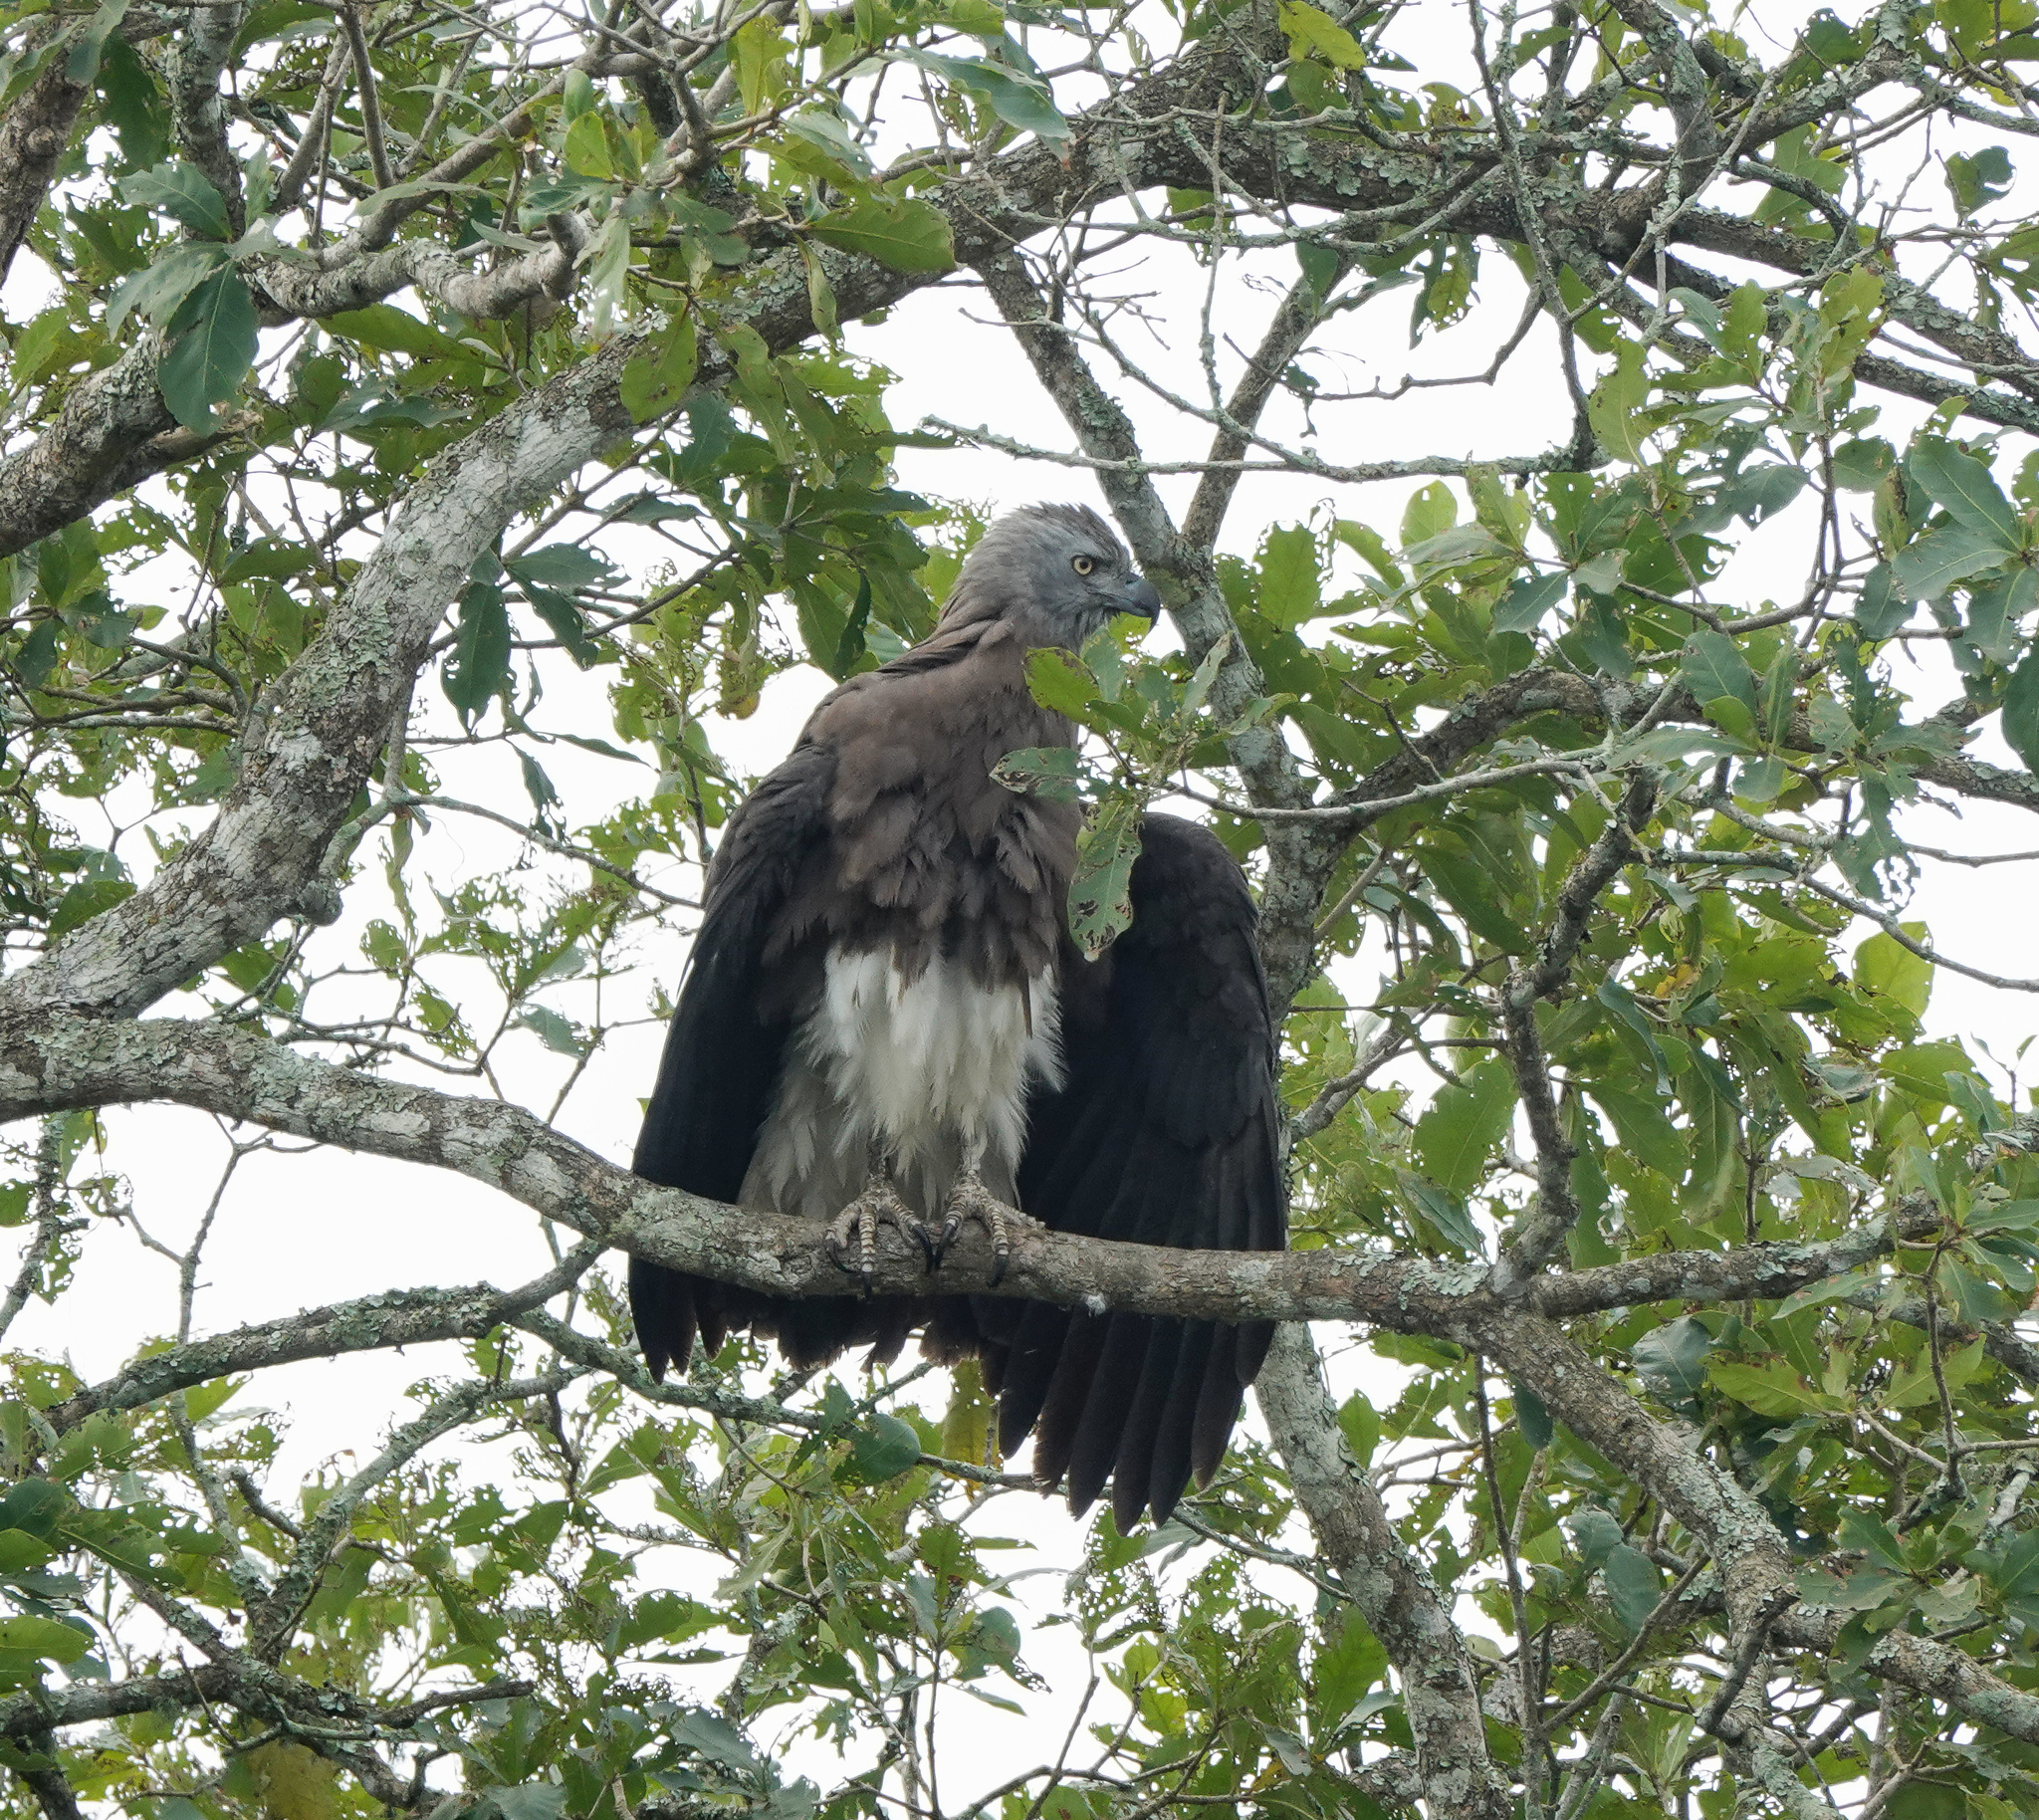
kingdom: Animalia
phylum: Chordata
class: Aves
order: Accipitriformes
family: Accipitridae
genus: Icthyophaga
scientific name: Icthyophaga ichthyaetus
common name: Grey-headed fish eagle
